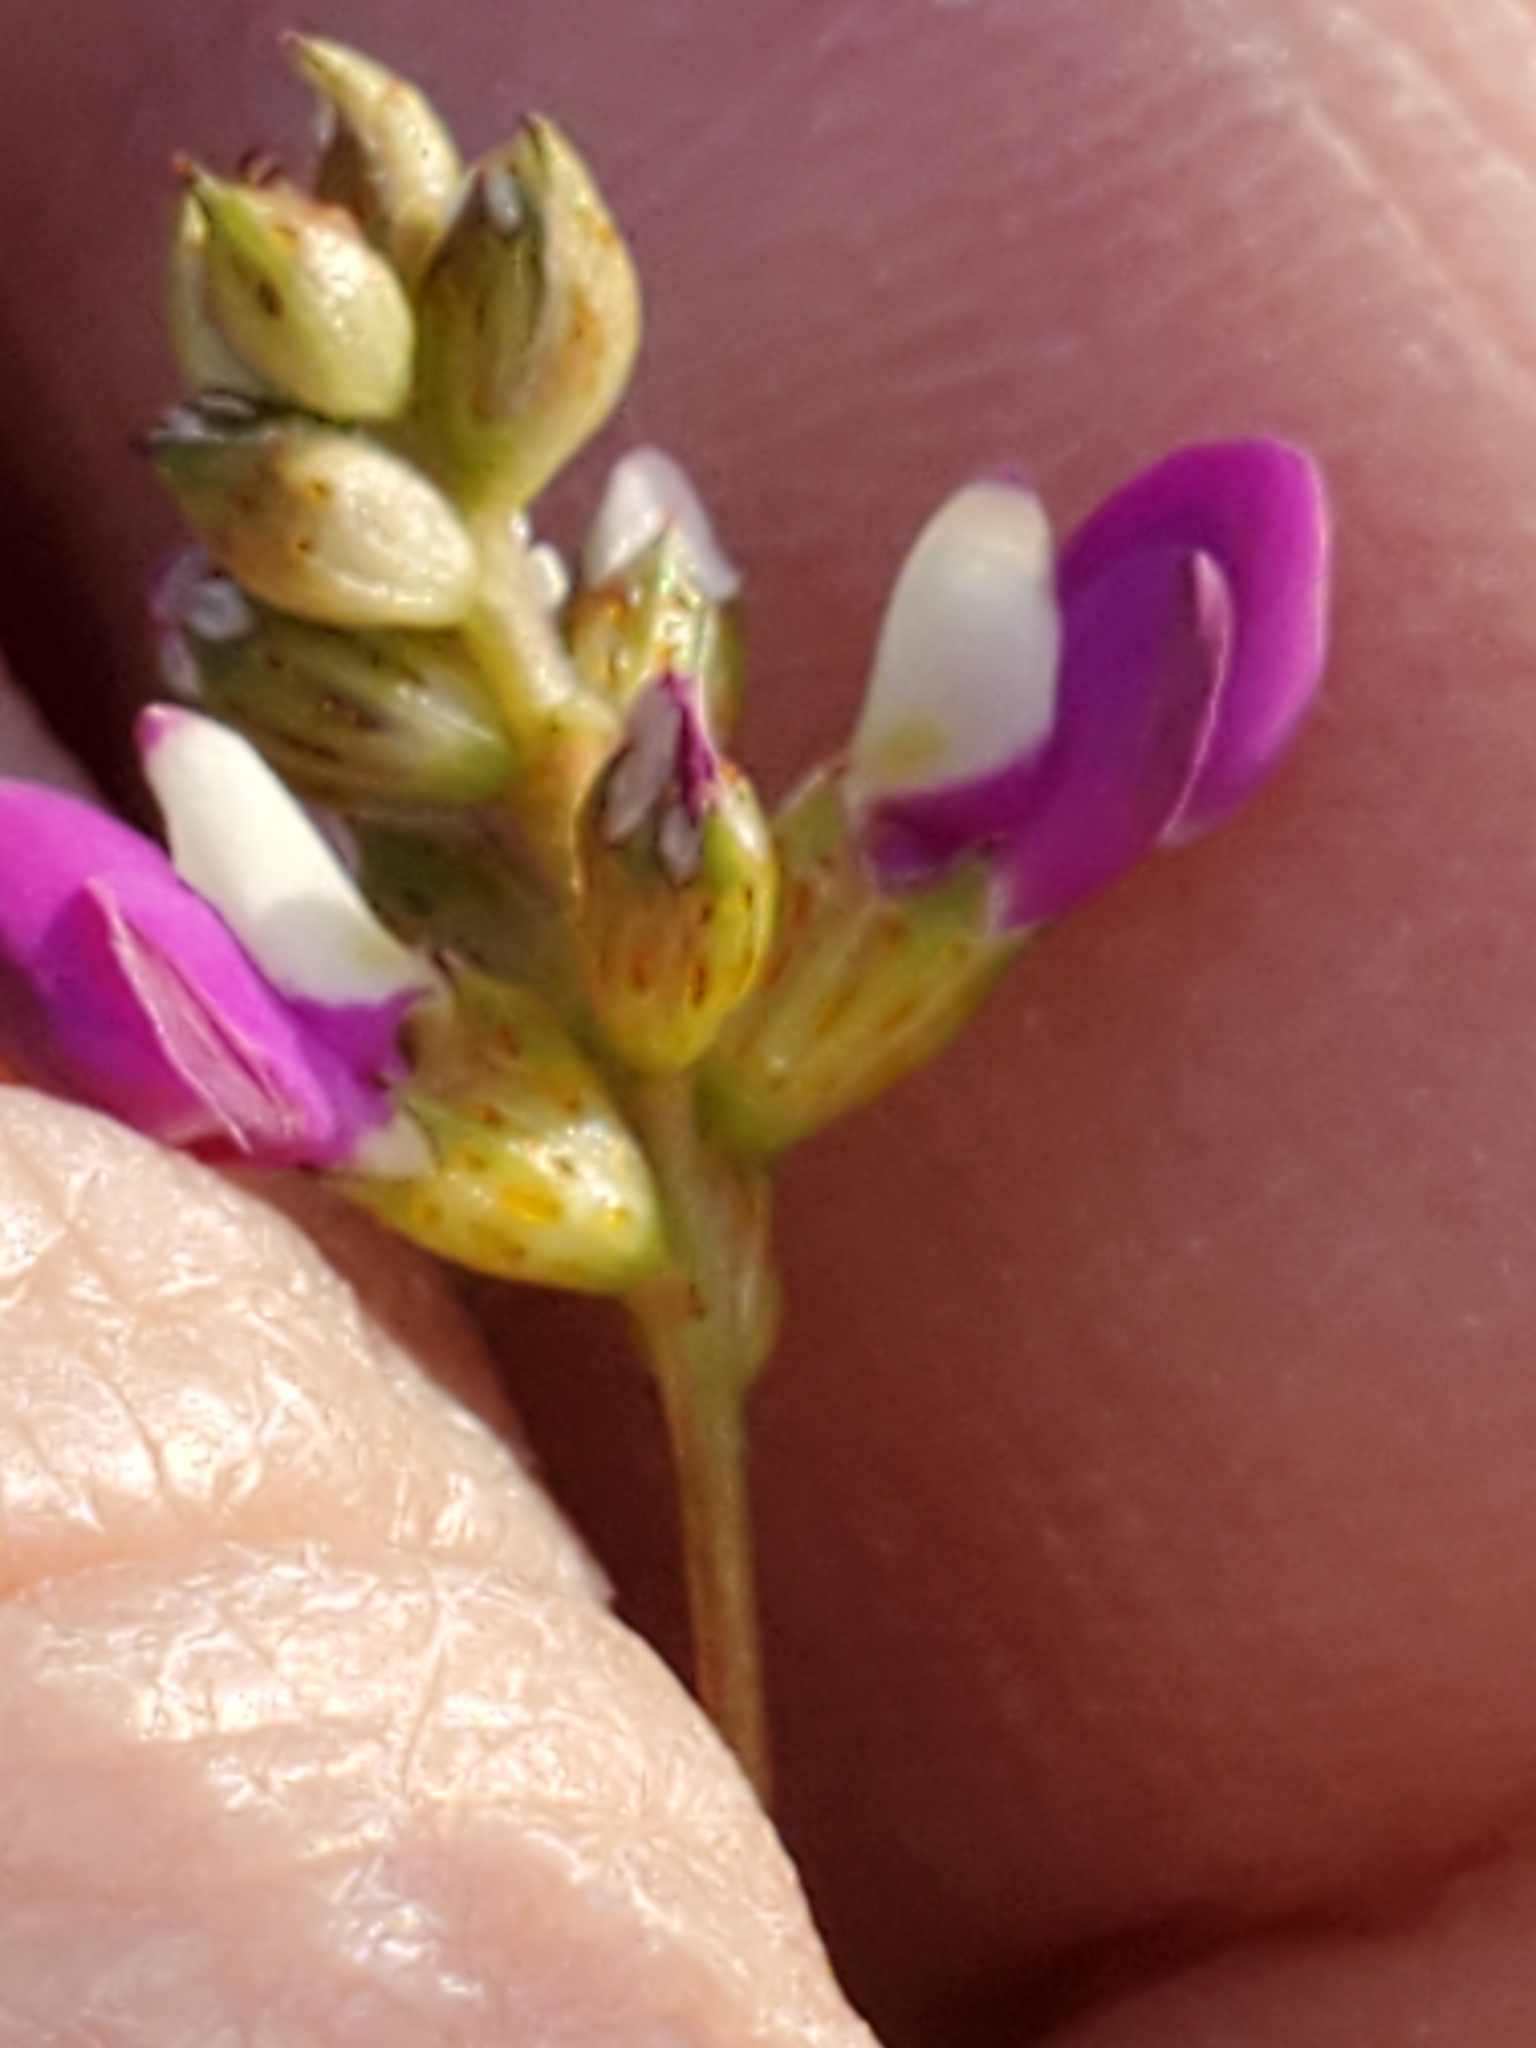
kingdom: Plantae
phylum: Tracheophyta
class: Magnoliopsida
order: Fabales
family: Fabaceae
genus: Dalea
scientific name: Dalea frutescens
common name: Black dalea
